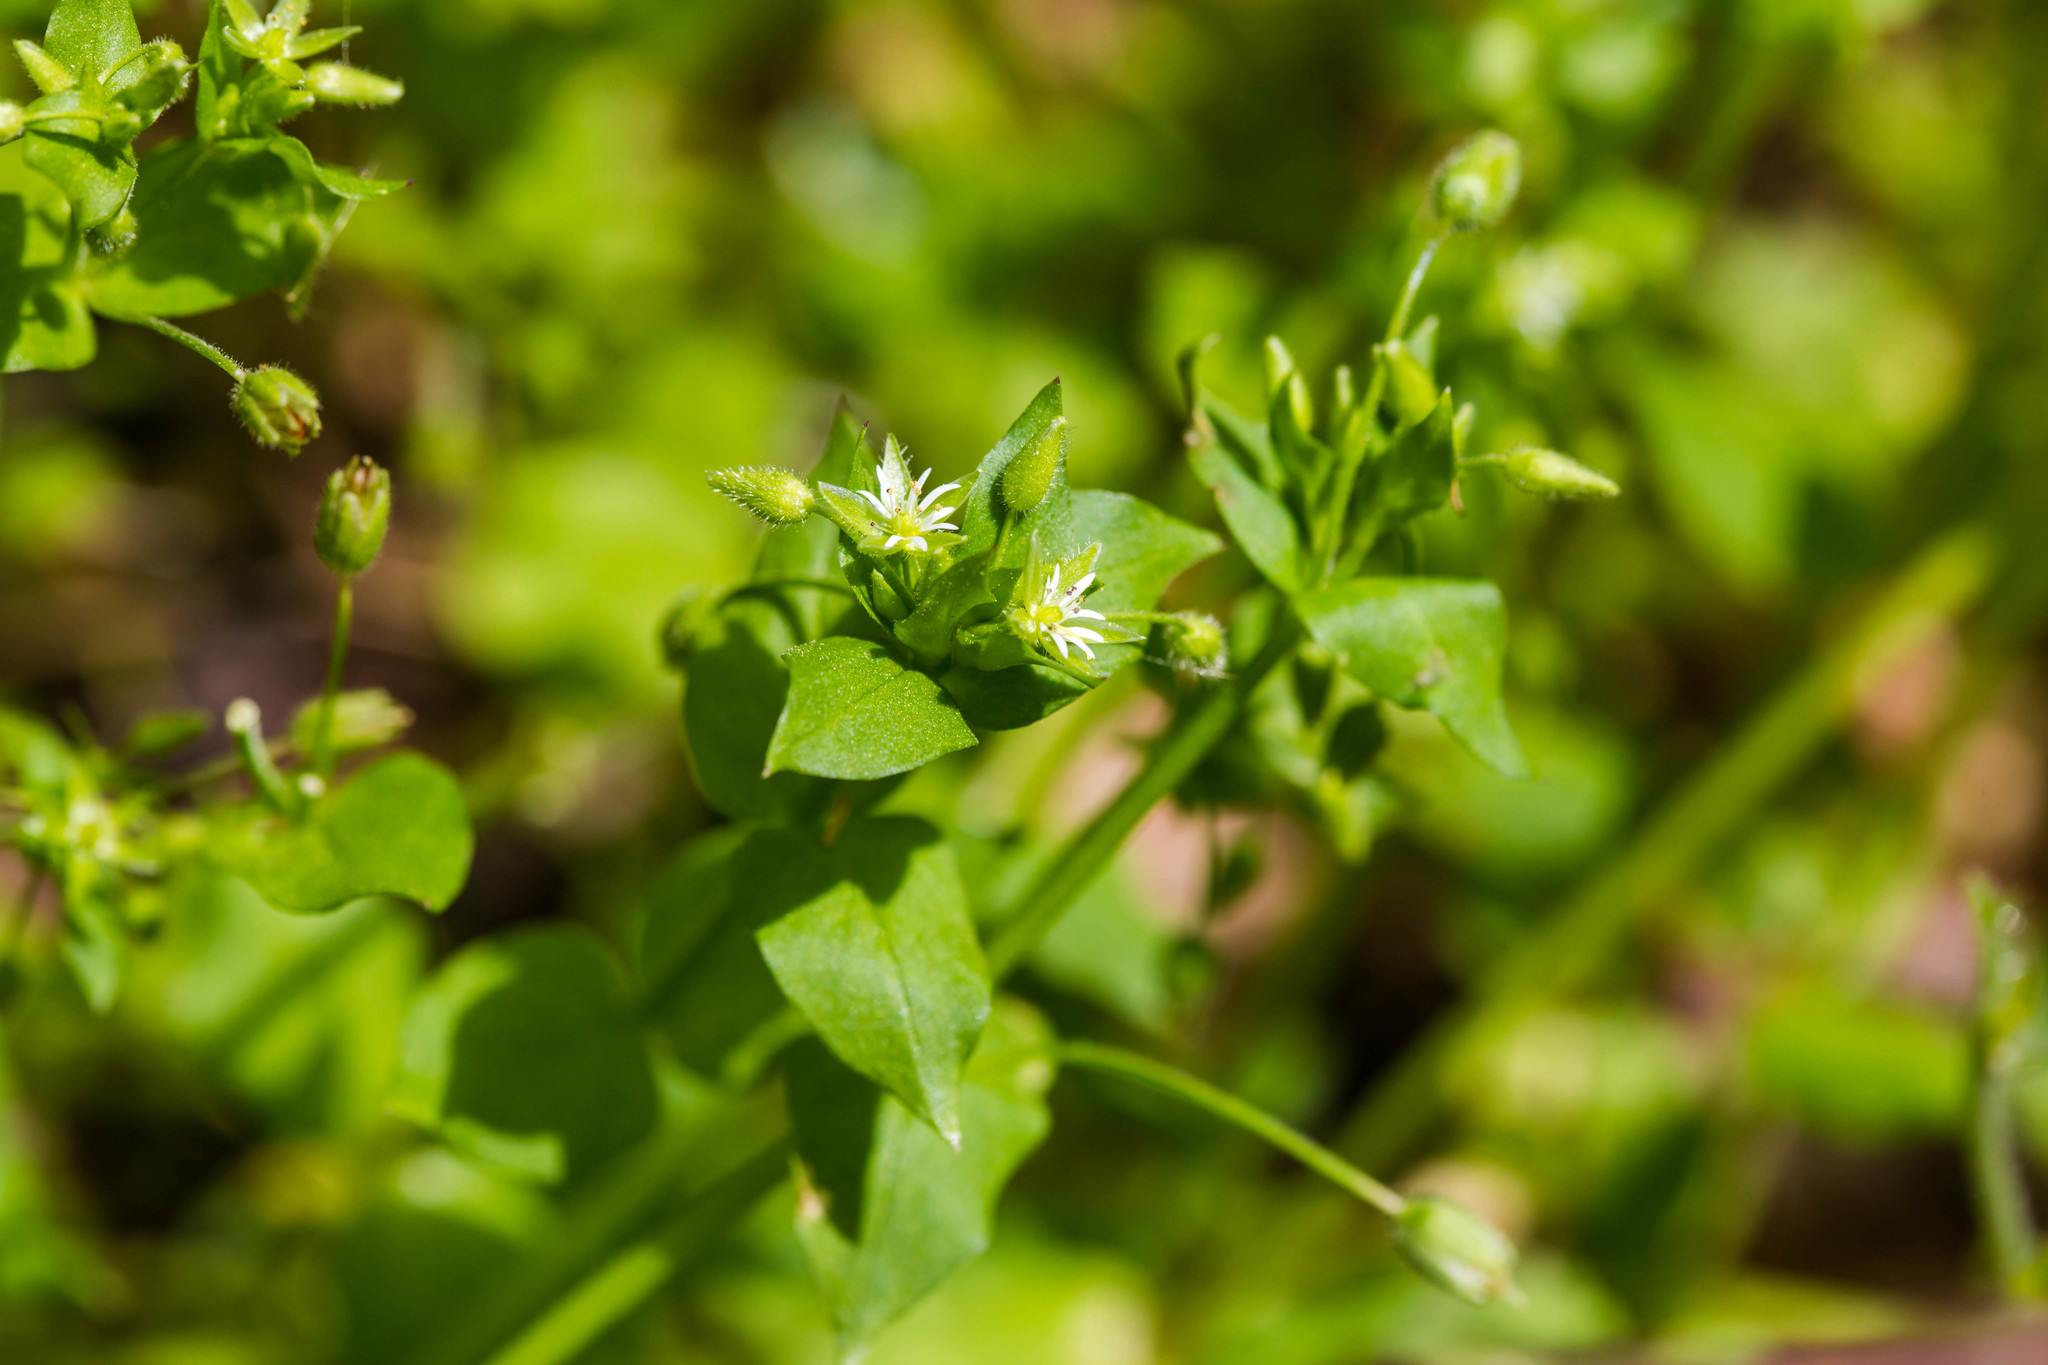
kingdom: Plantae
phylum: Tracheophyta
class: Magnoliopsida
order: Caryophyllales
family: Caryophyllaceae
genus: Stellaria
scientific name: Stellaria media
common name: Common chickweed
